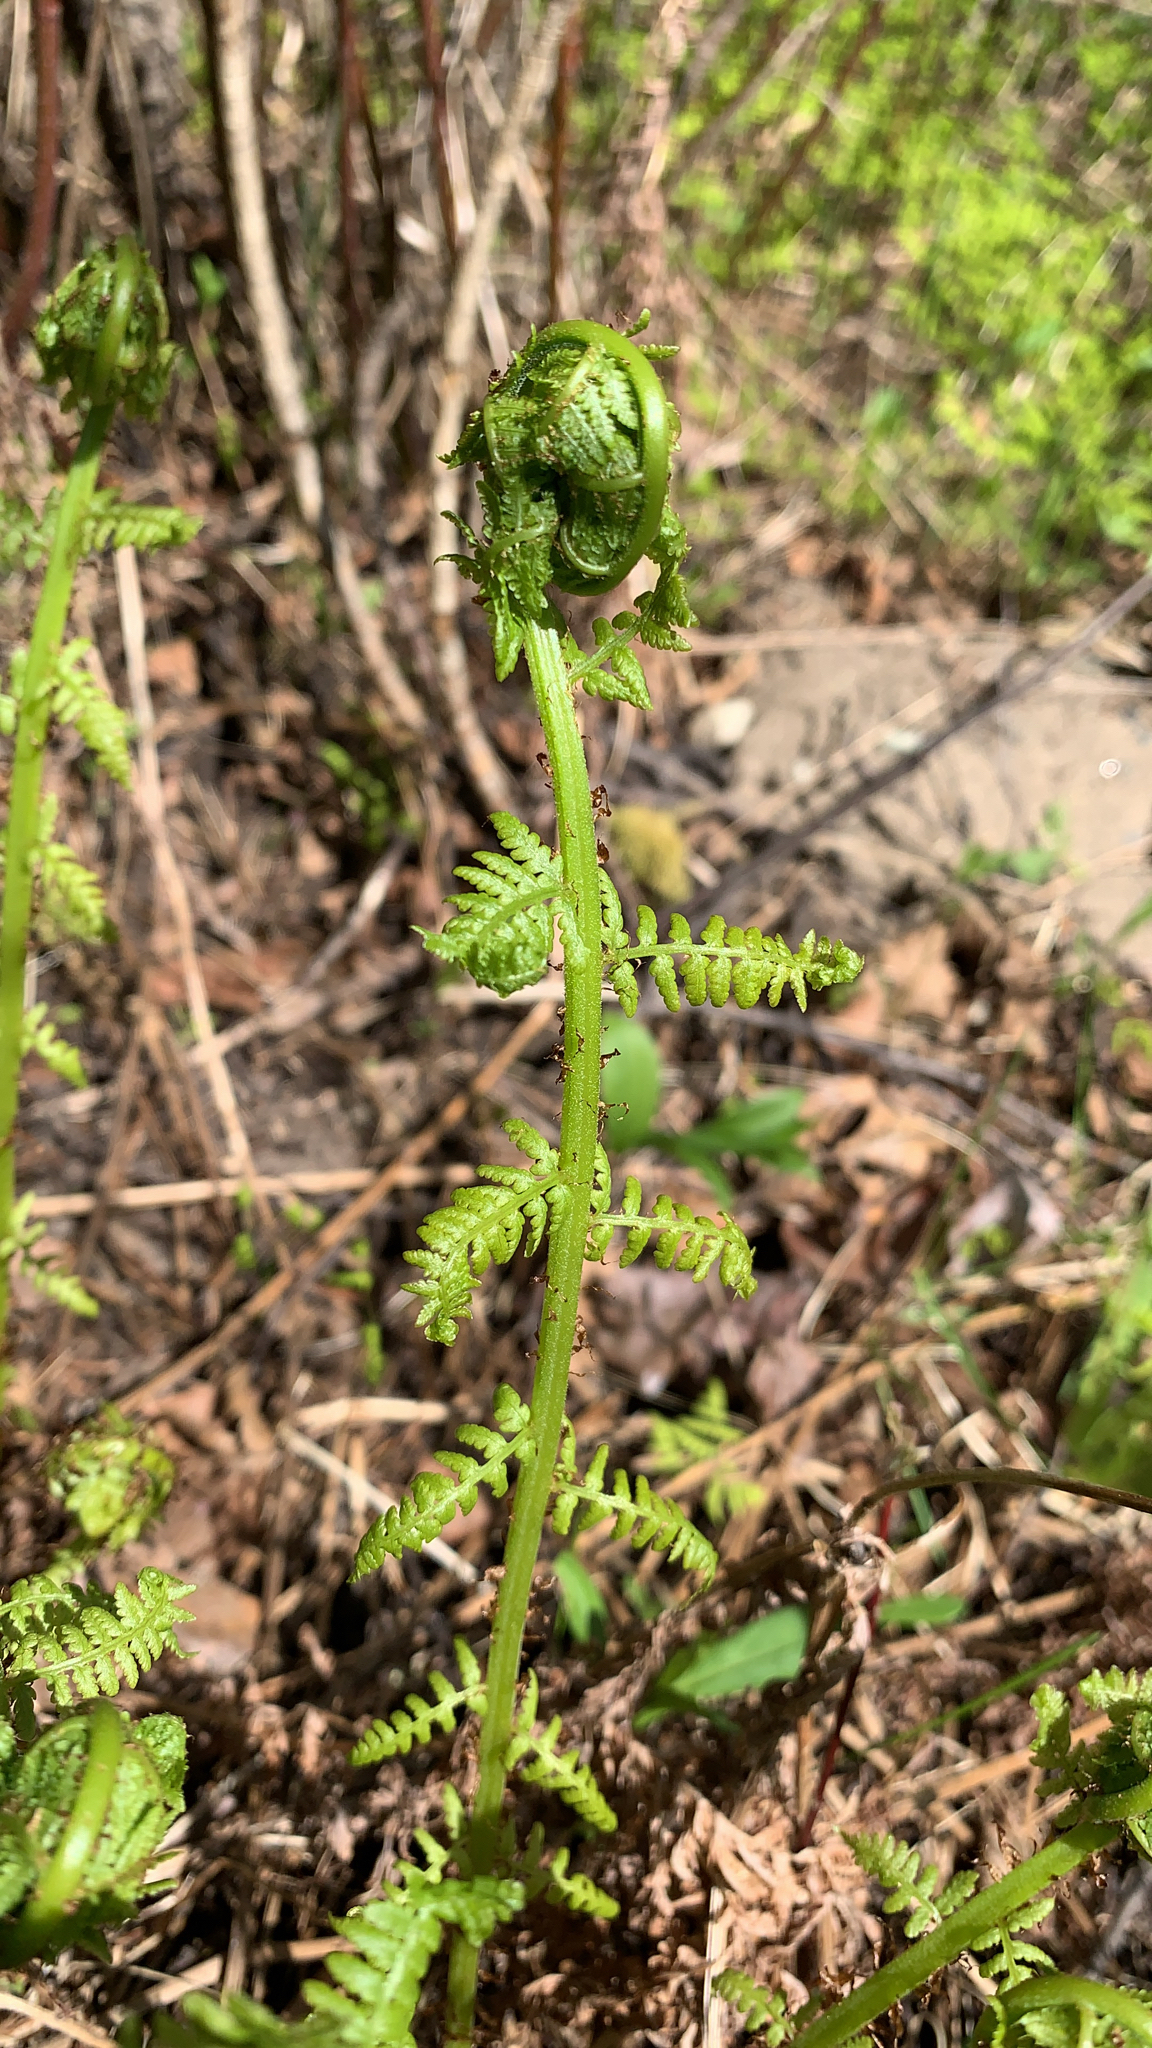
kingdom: Plantae
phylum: Tracheophyta
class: Polypodiopsida
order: Polypodiales
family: Athyriaceae
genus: Athyrium
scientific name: Athyrium filix-femina
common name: Lady fern
